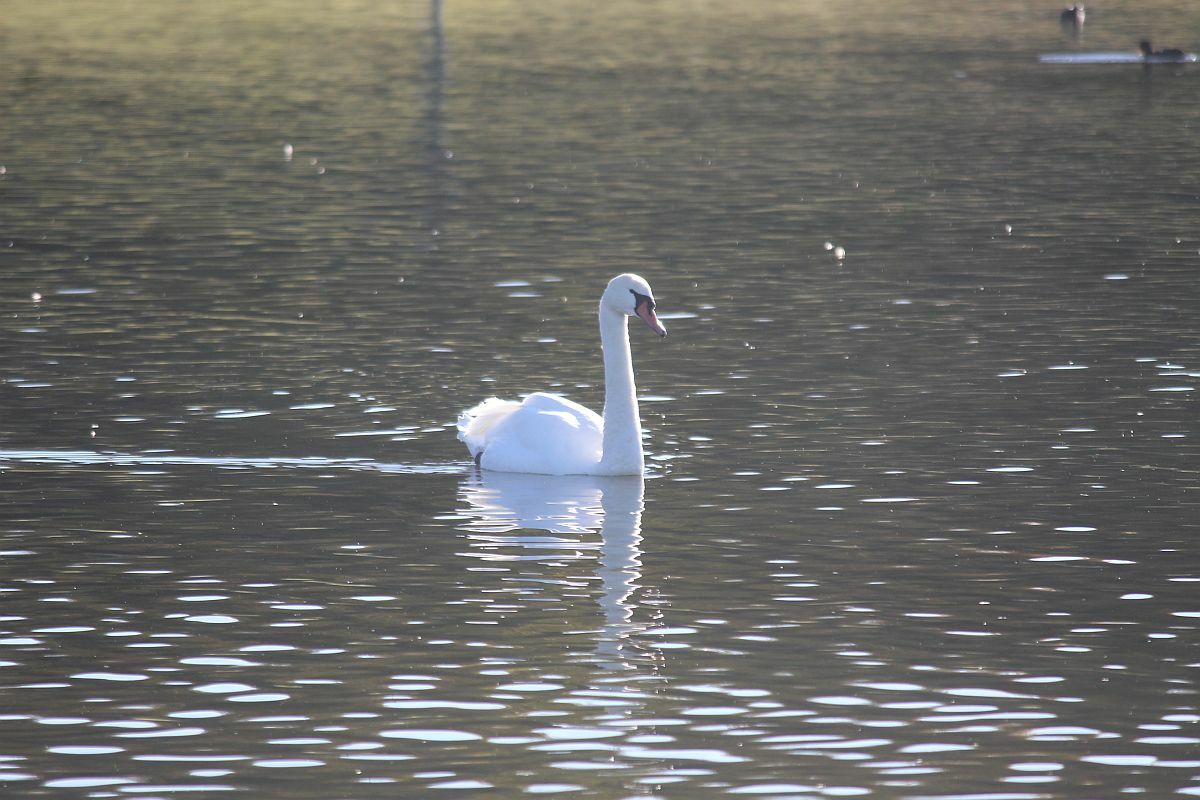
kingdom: Animalia
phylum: Chordata
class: Aves
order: Anseriformes
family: Anatidae
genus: Cygnus
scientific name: Cygnus olor
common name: Mute swan
